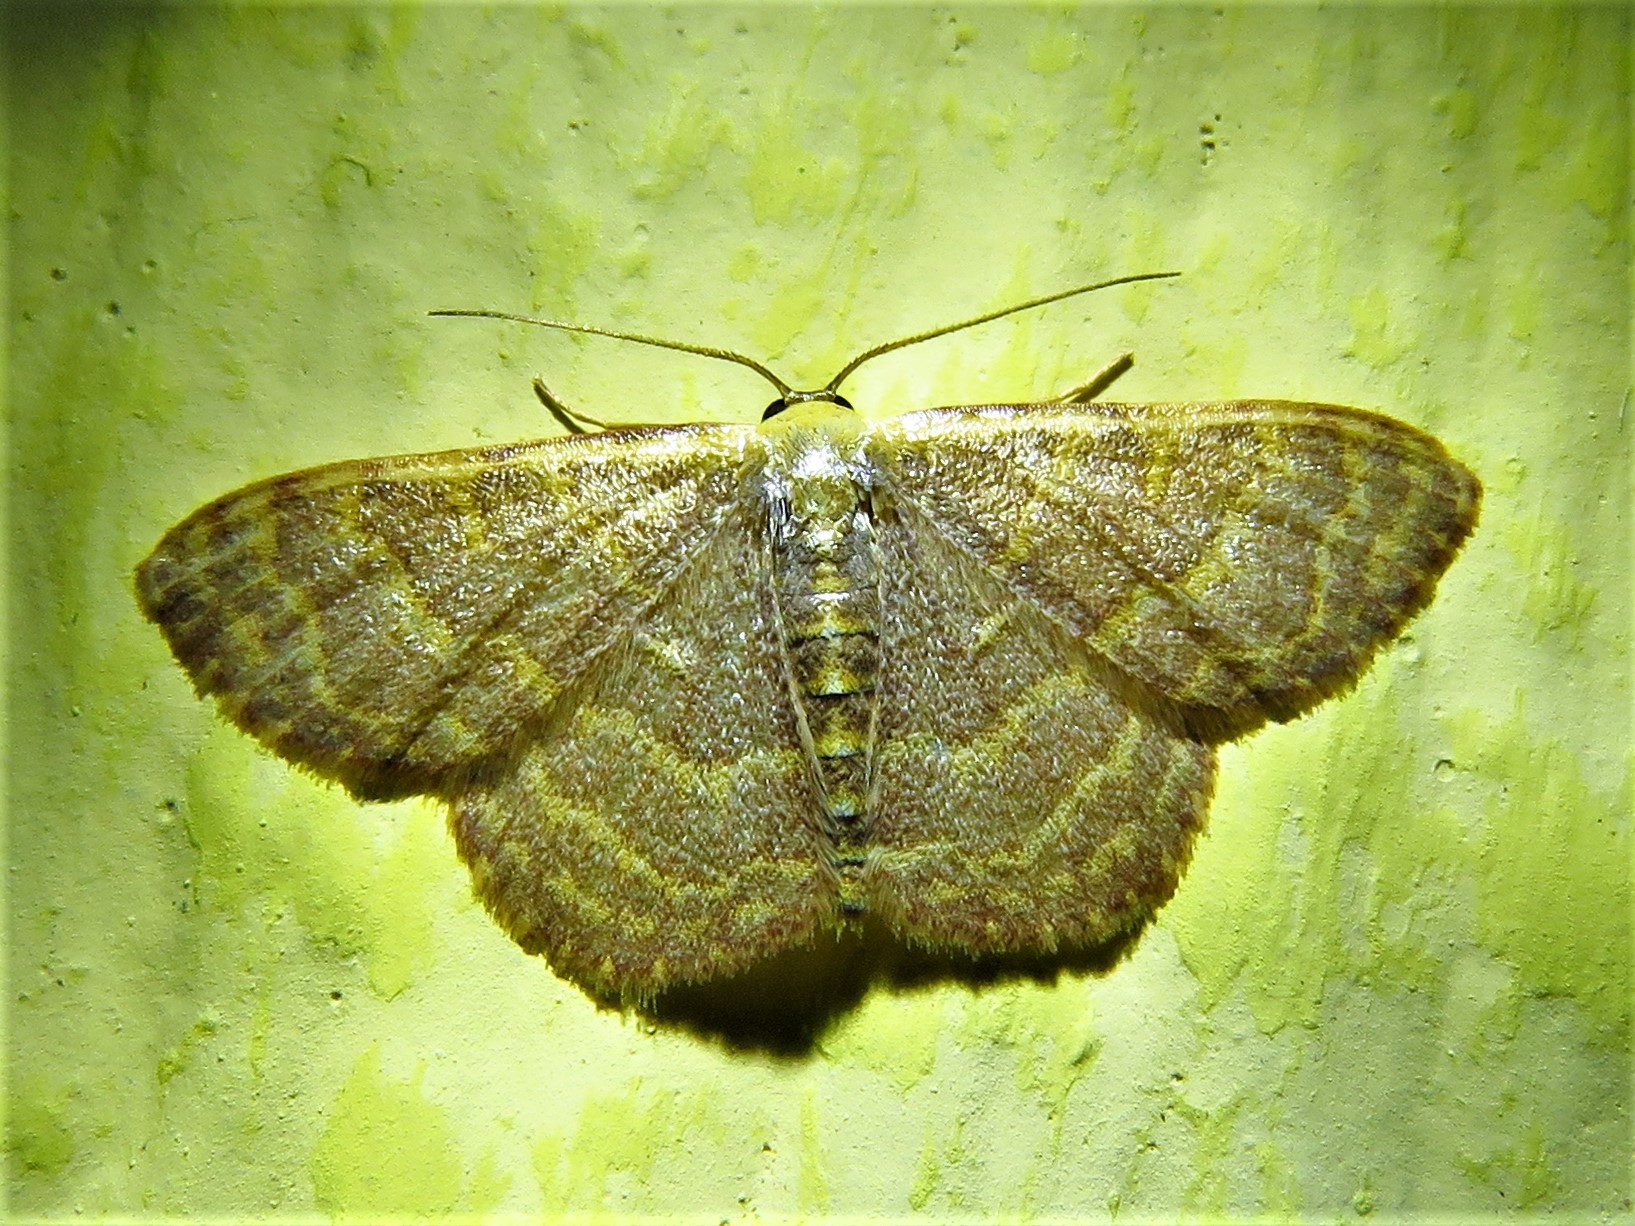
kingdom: Animalia
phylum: Arthropoda
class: Insecta
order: Lepidoptera
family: Geometridae
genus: Leptostales
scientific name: Leptostales pannaria
